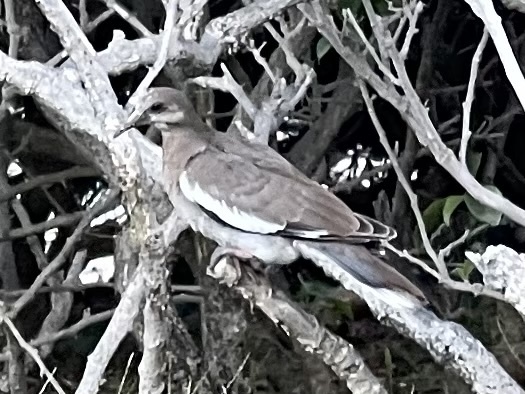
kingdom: Animalia
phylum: Chordata
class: Aves
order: Columbiformes
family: Columbidae
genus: Zenaida
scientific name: Zenaida asiatica
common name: White-winged dove
